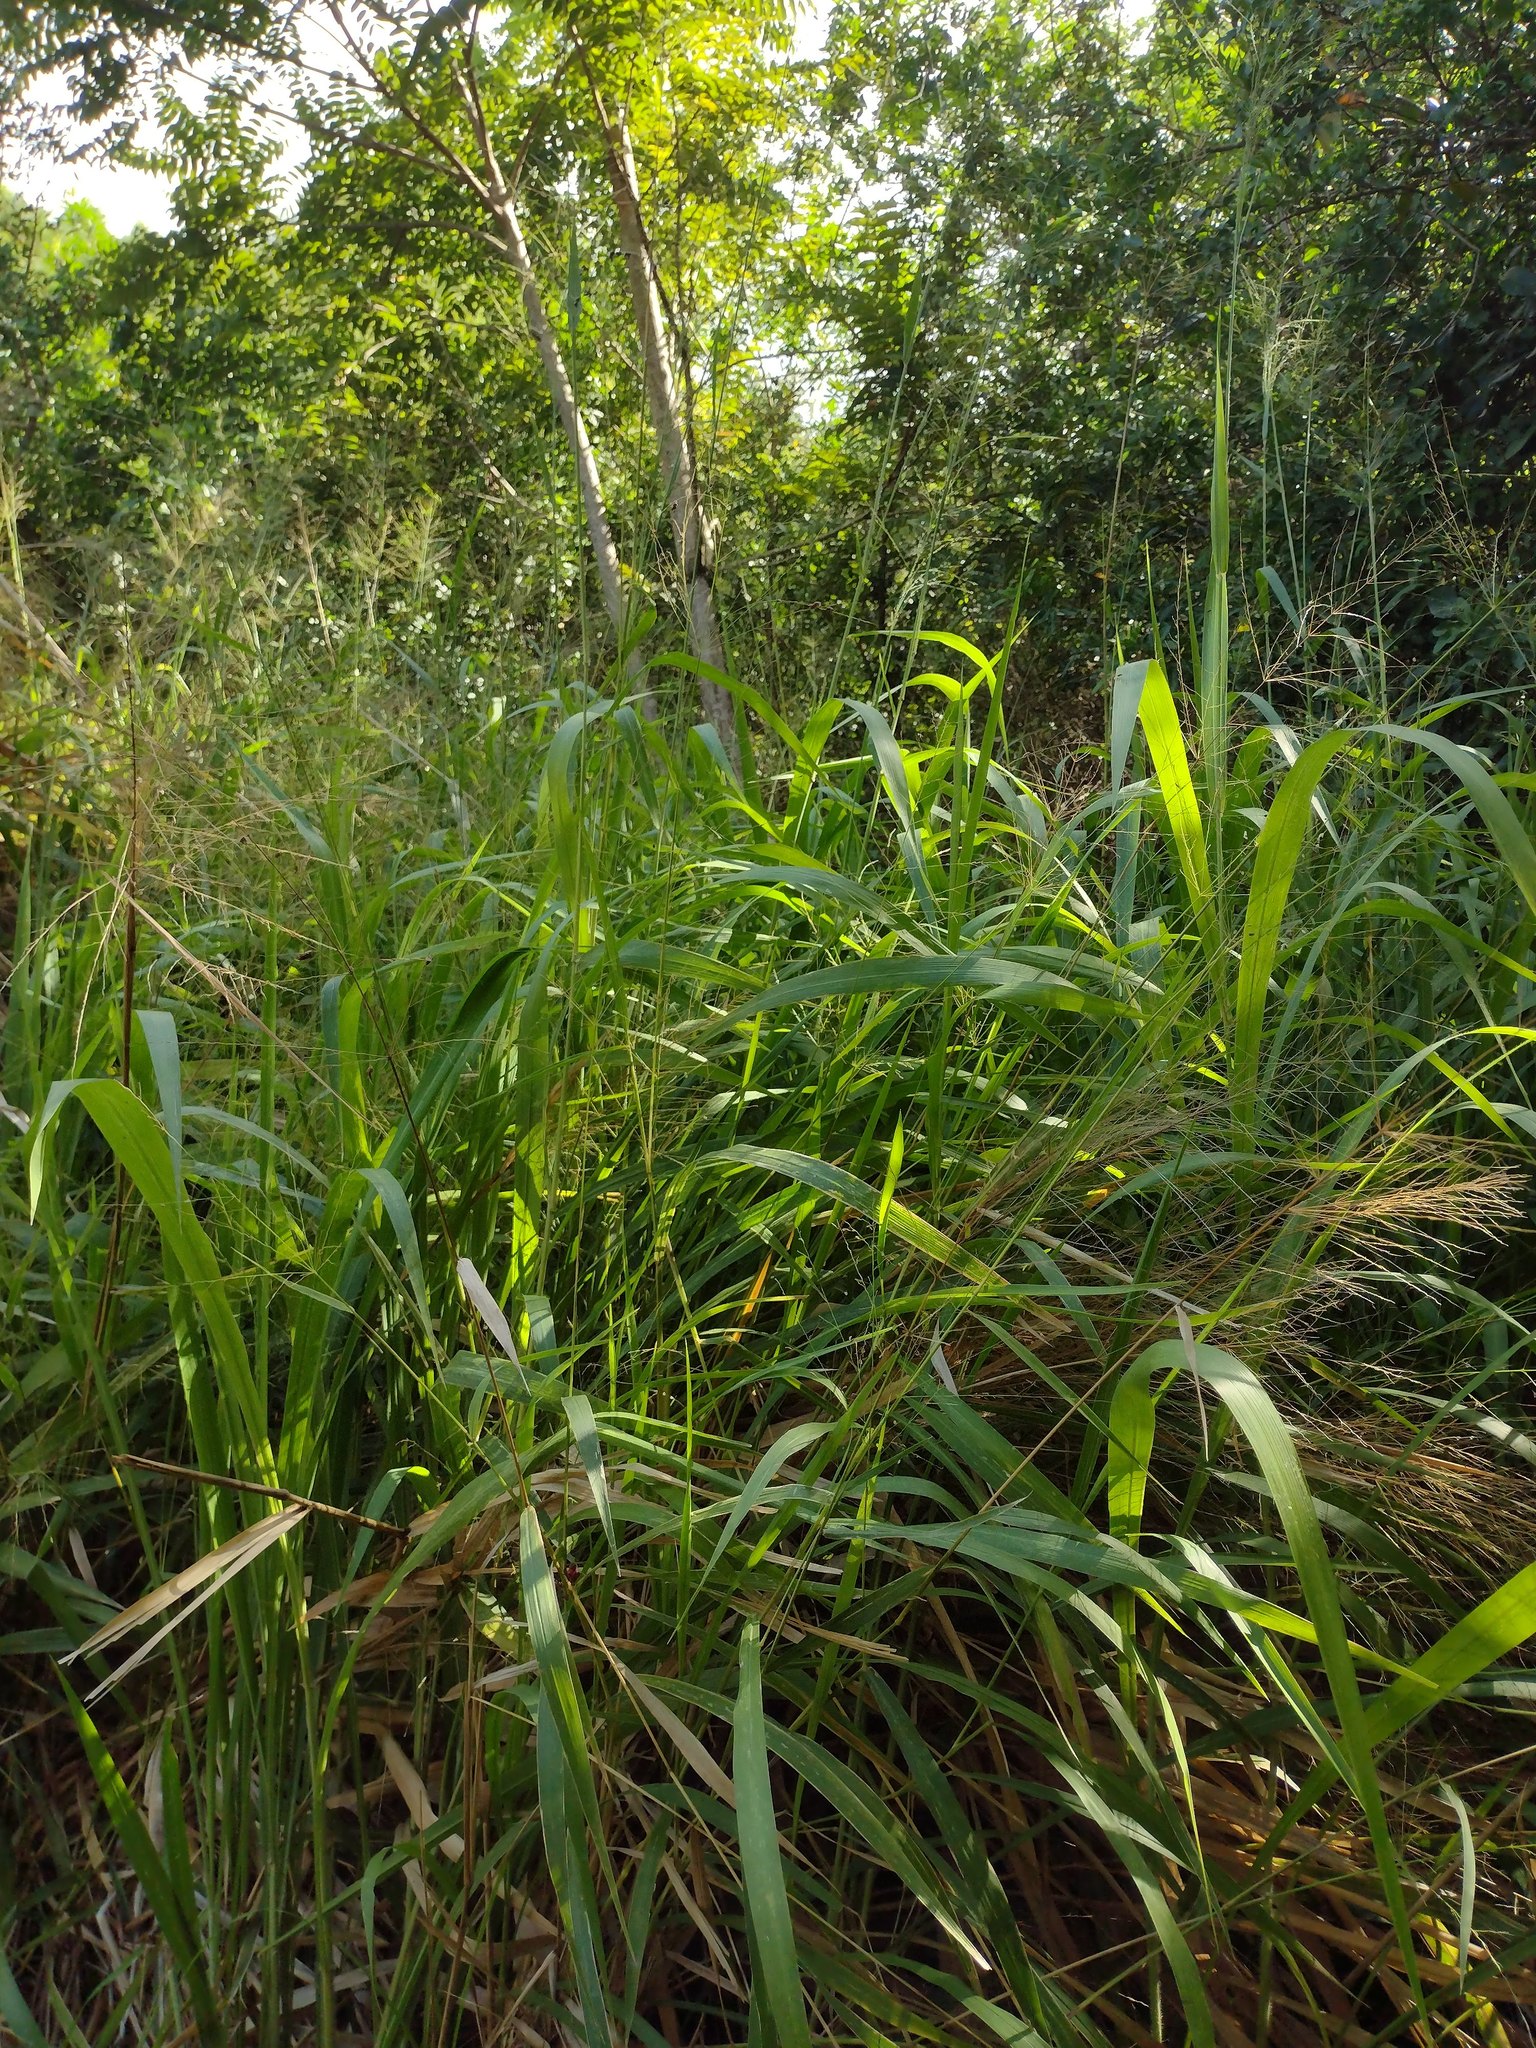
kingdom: Plantae
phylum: Tracheophyta
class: Liliopsida
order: Poales
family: Poaceae
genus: Megathyrsus
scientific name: Megathyrsus maximus
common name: Guineagrass
